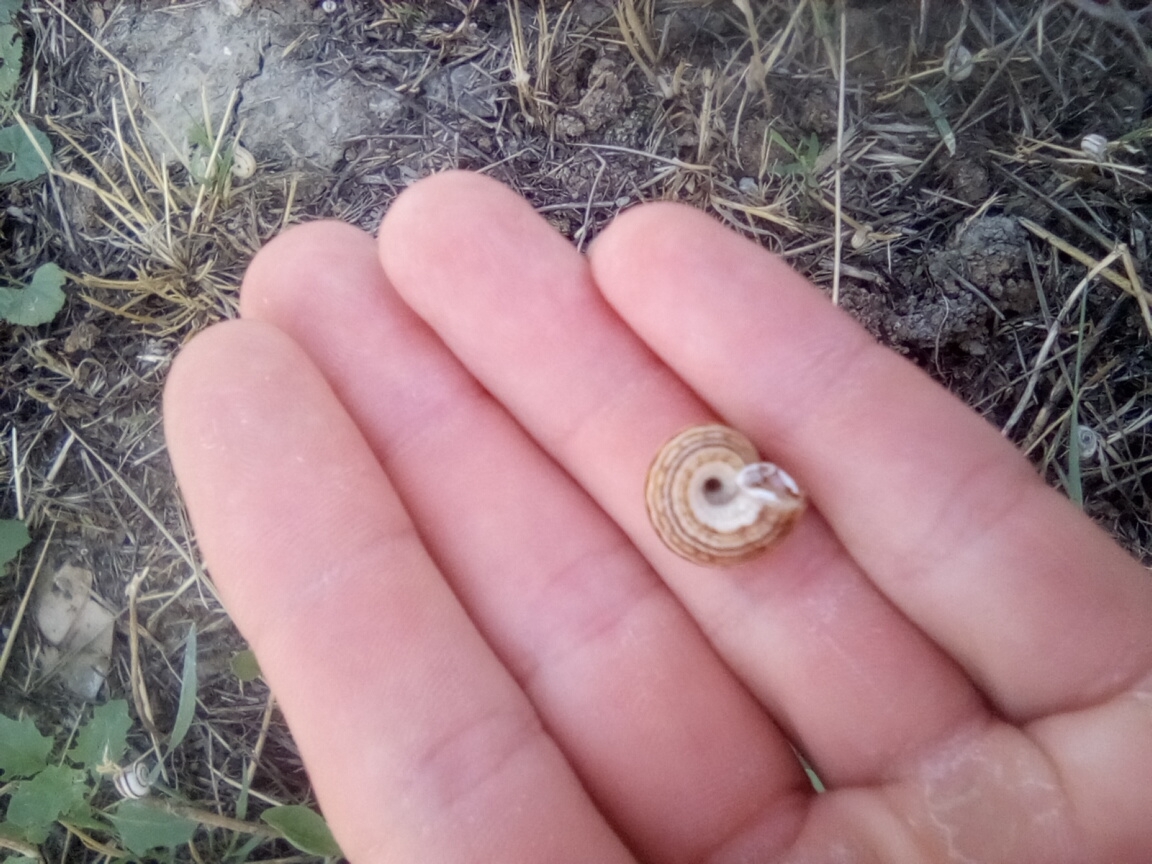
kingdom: Animalia
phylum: Mollusca
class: Gastropoda
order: Stylommatophora
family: Geomitridae
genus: Xeropicta
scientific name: Xeropicta krynickii
